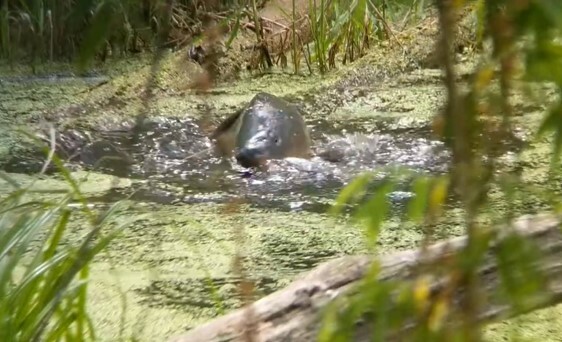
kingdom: Animalia
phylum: Chordata
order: Cypriniformes
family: Cyprinidae
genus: Cyprinus
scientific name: Cyprinus carpio
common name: Common carp
